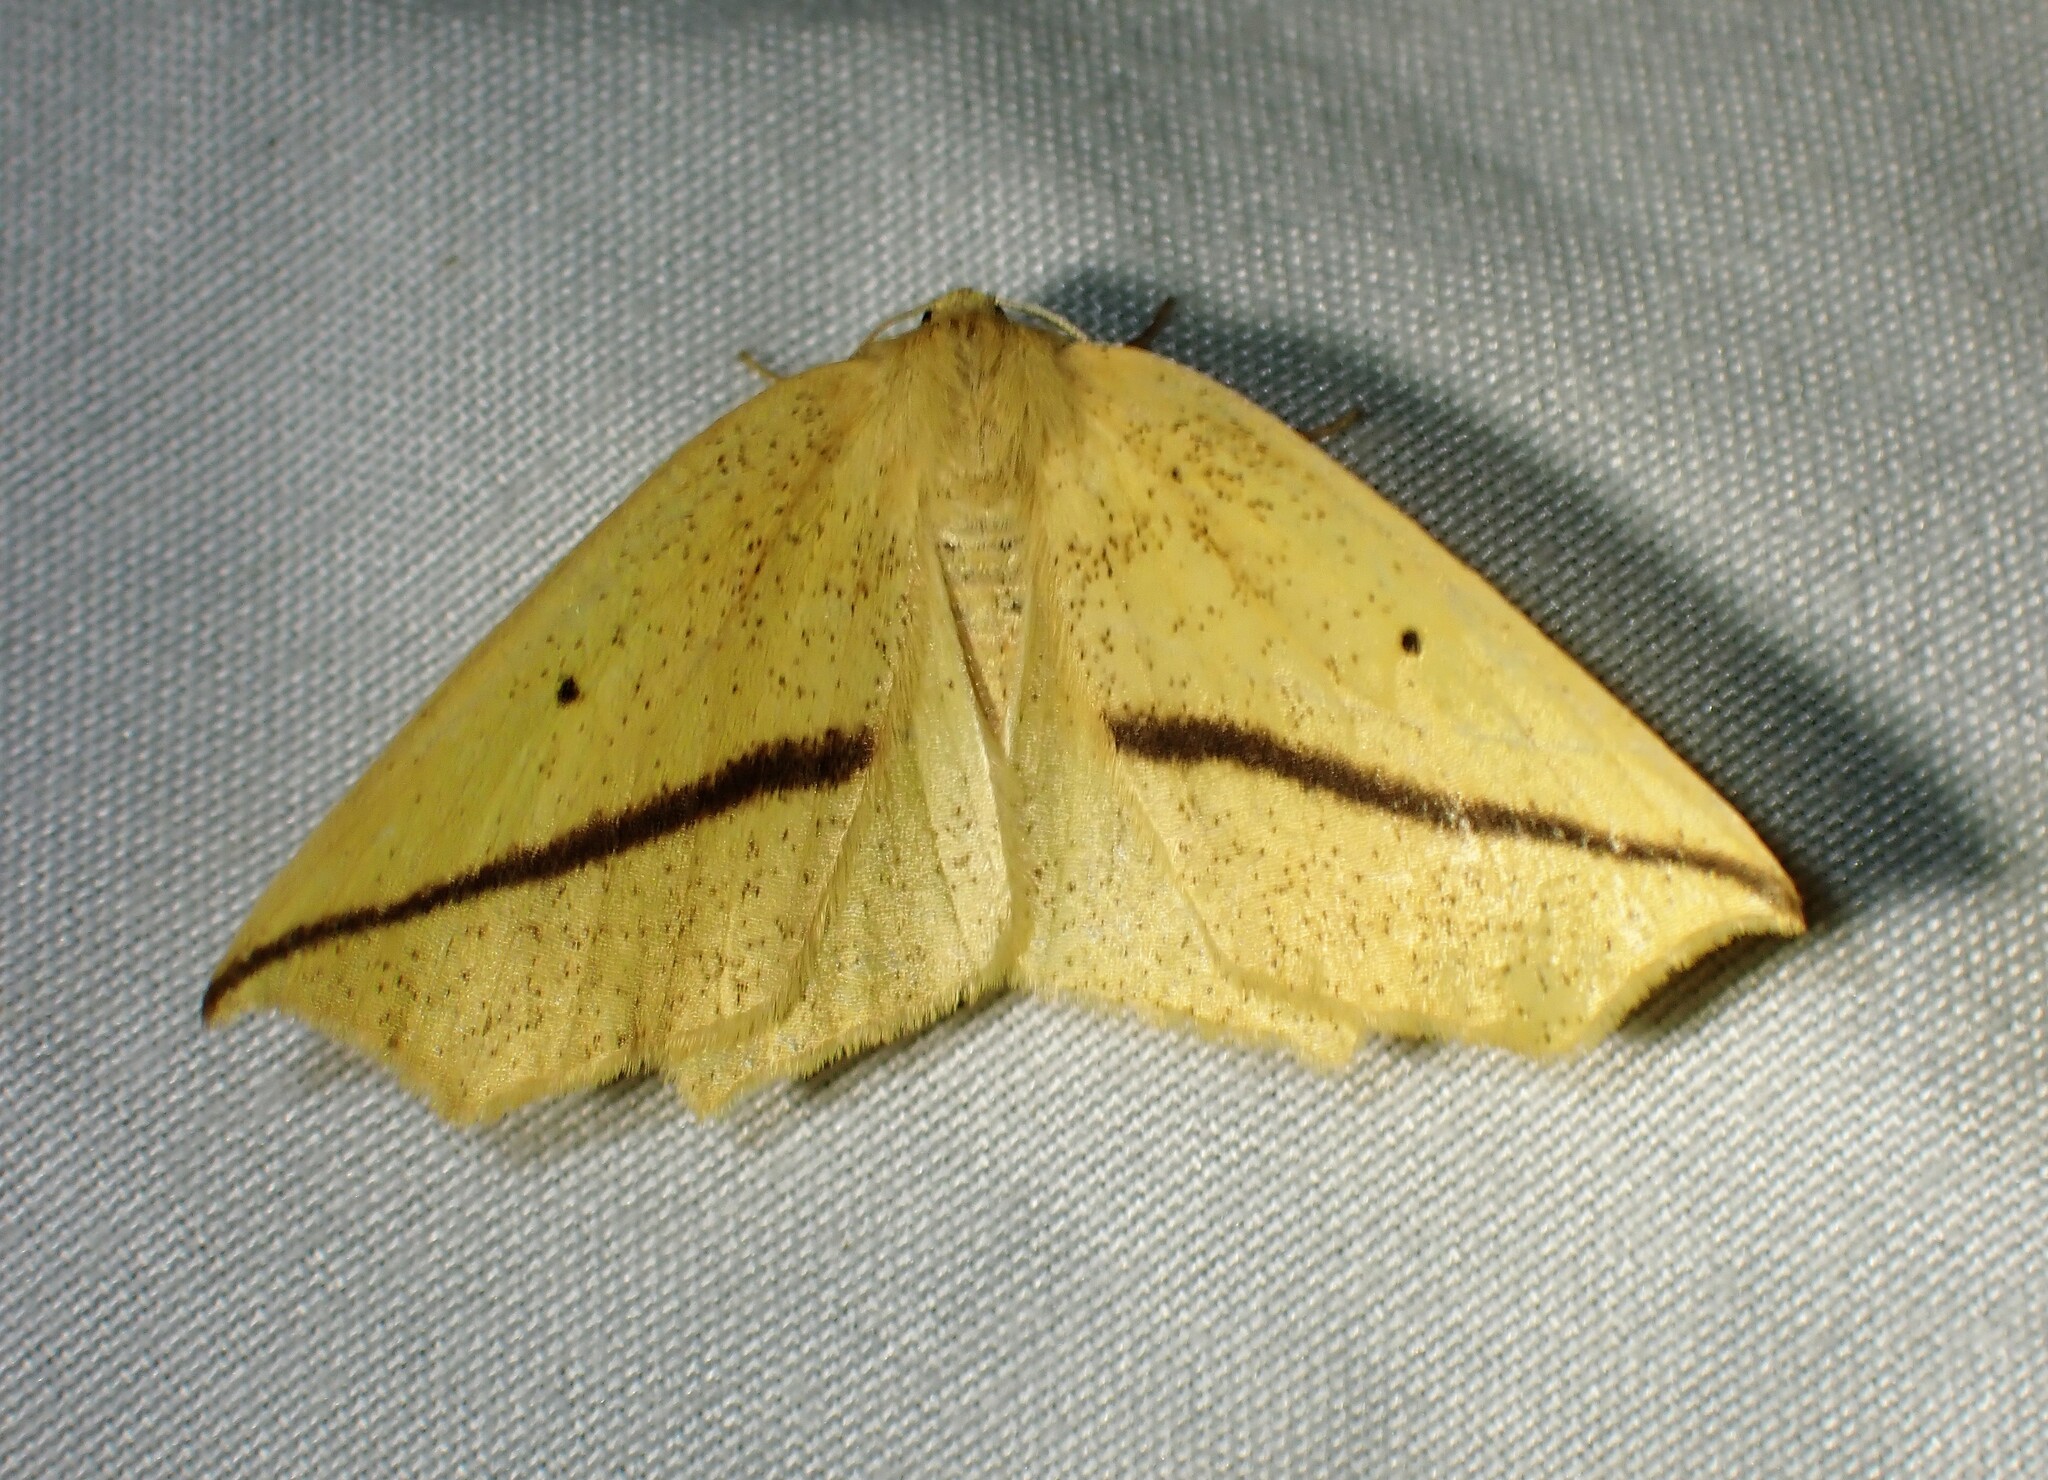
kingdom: Animalia
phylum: Arthropoda
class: Insecta
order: Lepidoptera
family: Geometridae
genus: Tetracis
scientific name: Tetracis crocallata
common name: Yellow slant-line
